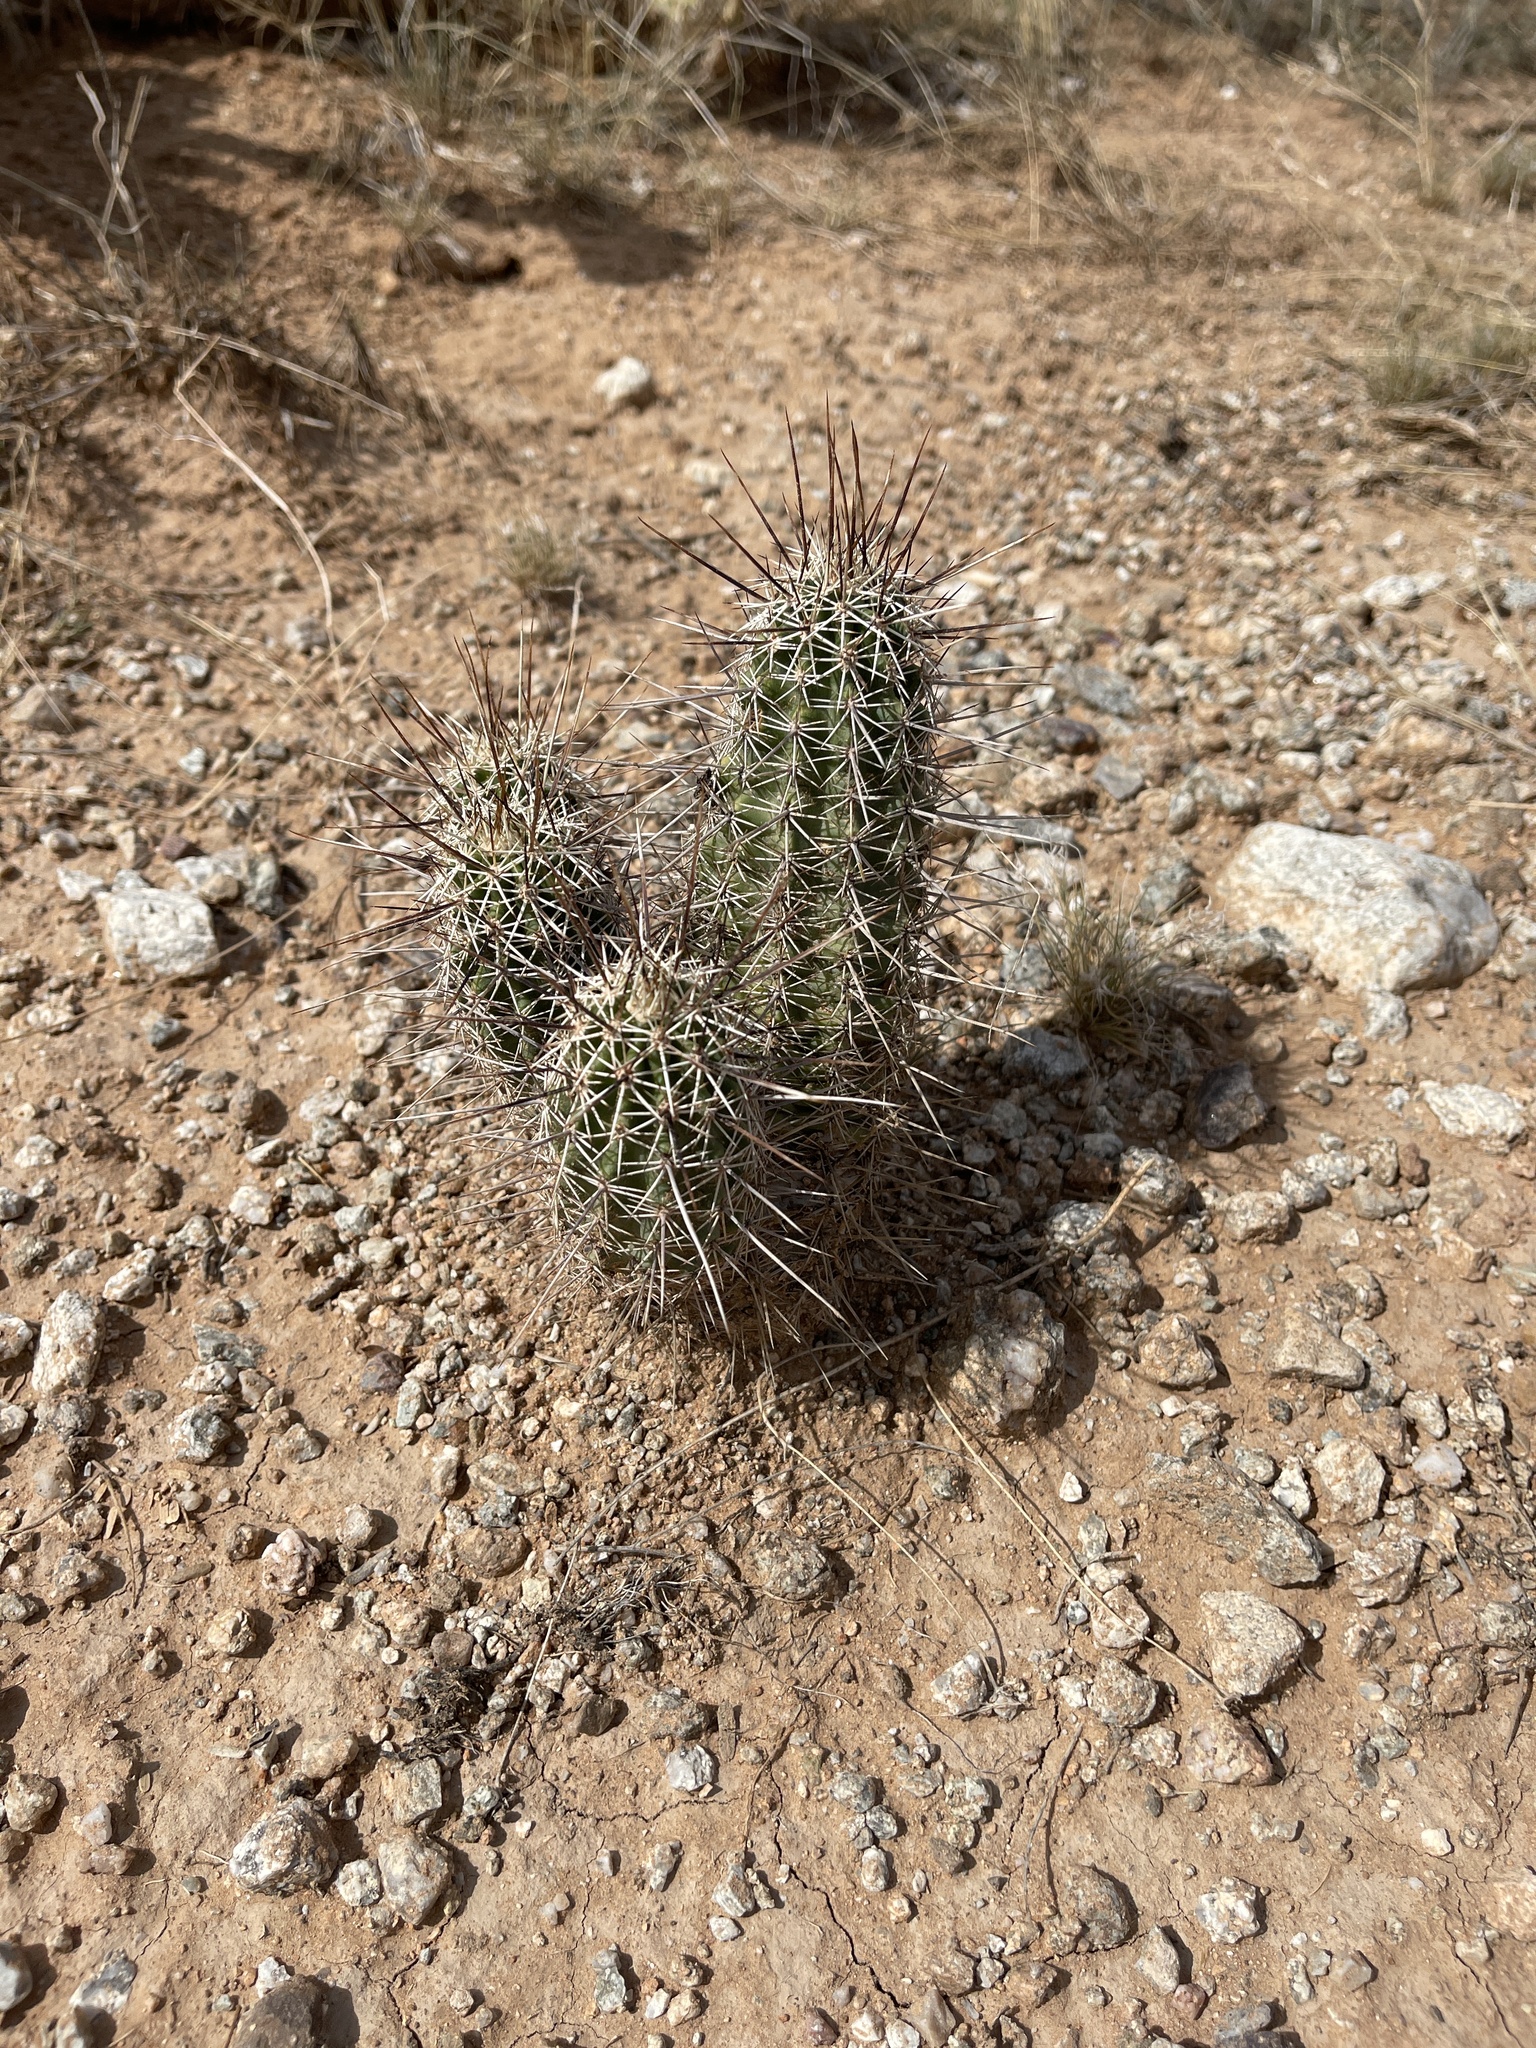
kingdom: Plantae
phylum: Tracheophyta
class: Magnoliopsida
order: Caryophyllales
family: Cactaceae
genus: Echinocereus
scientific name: Echinocereus fasciculatus
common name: Bundle hedgehog
